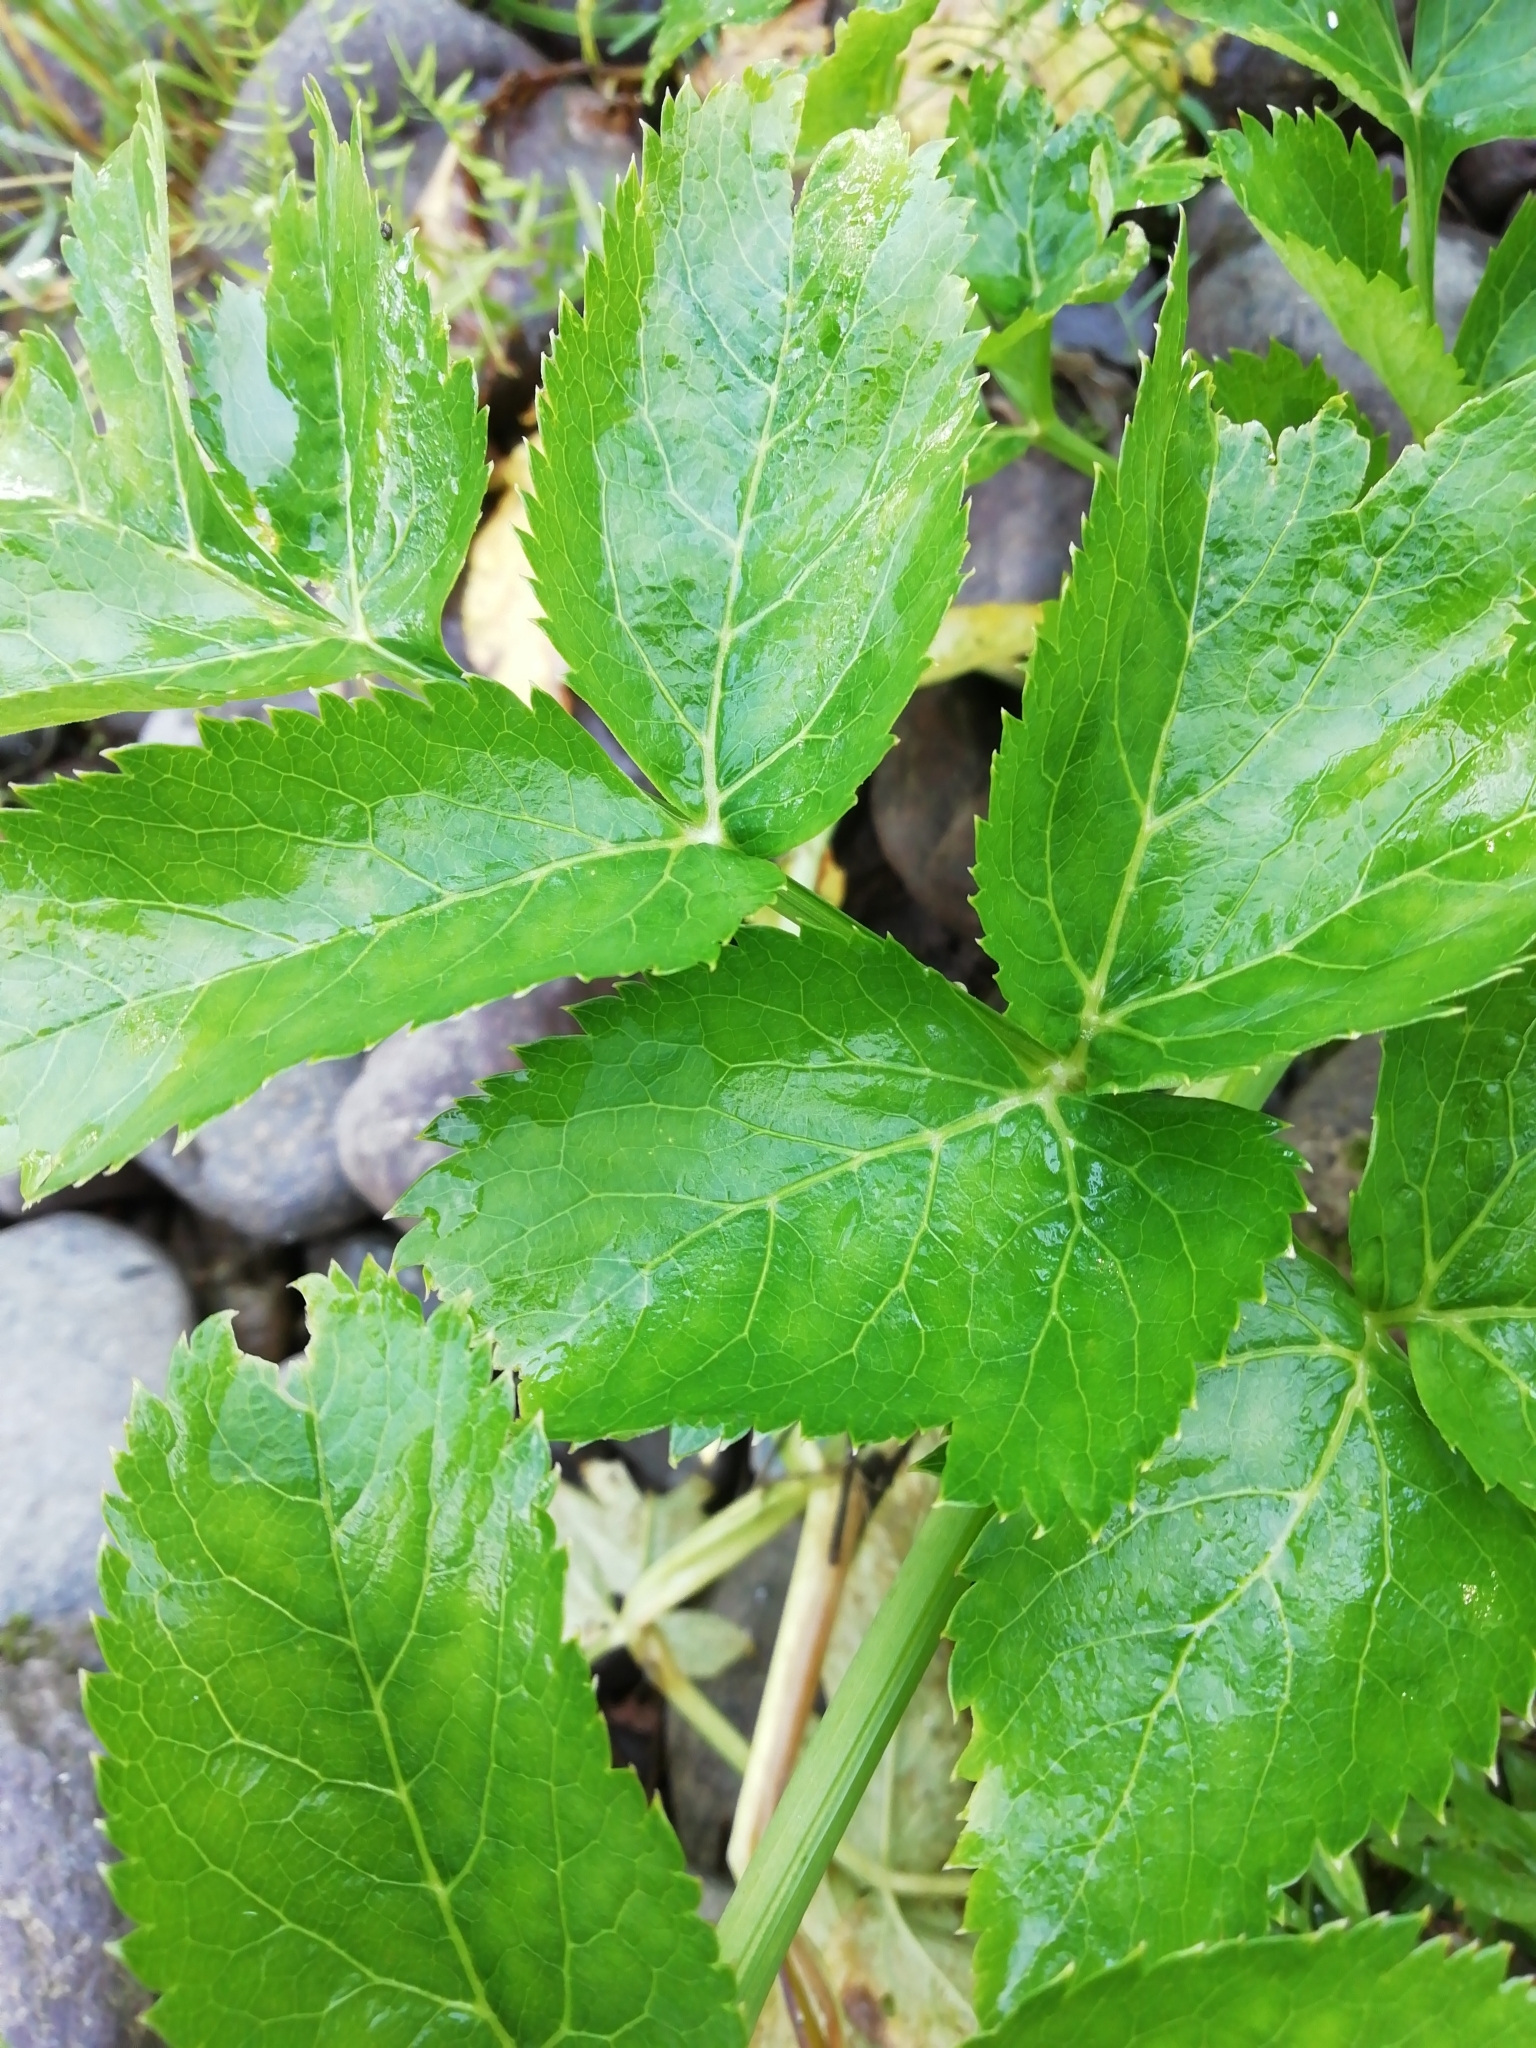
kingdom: Plantae
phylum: Tracheophyta
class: Magnoliopsida
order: Apiales
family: Apiaceae
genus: Angelica
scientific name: Angelica decurrens
